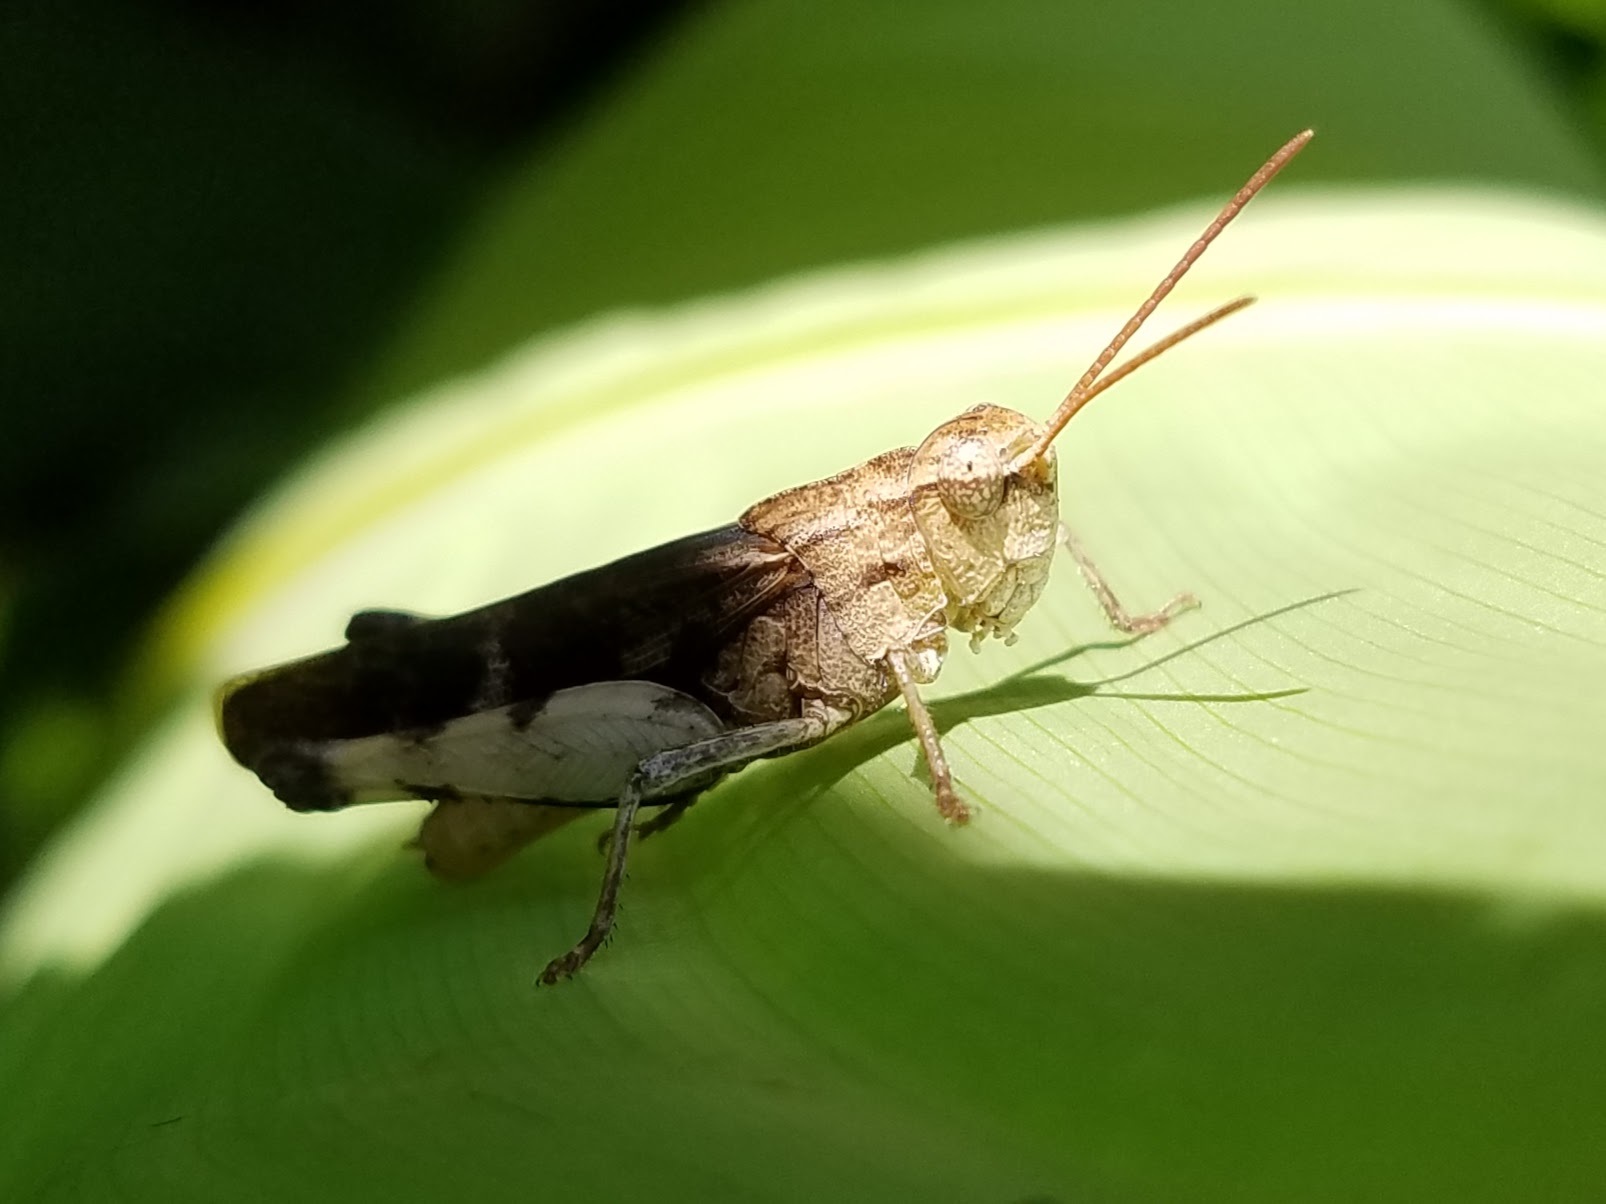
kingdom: Animalia
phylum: Arthropoda
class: Insecta
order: Orthoptera
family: Acrididae
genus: Chortophaga
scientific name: Chortophaga viridifasciata
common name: Green-striped grasshopper
